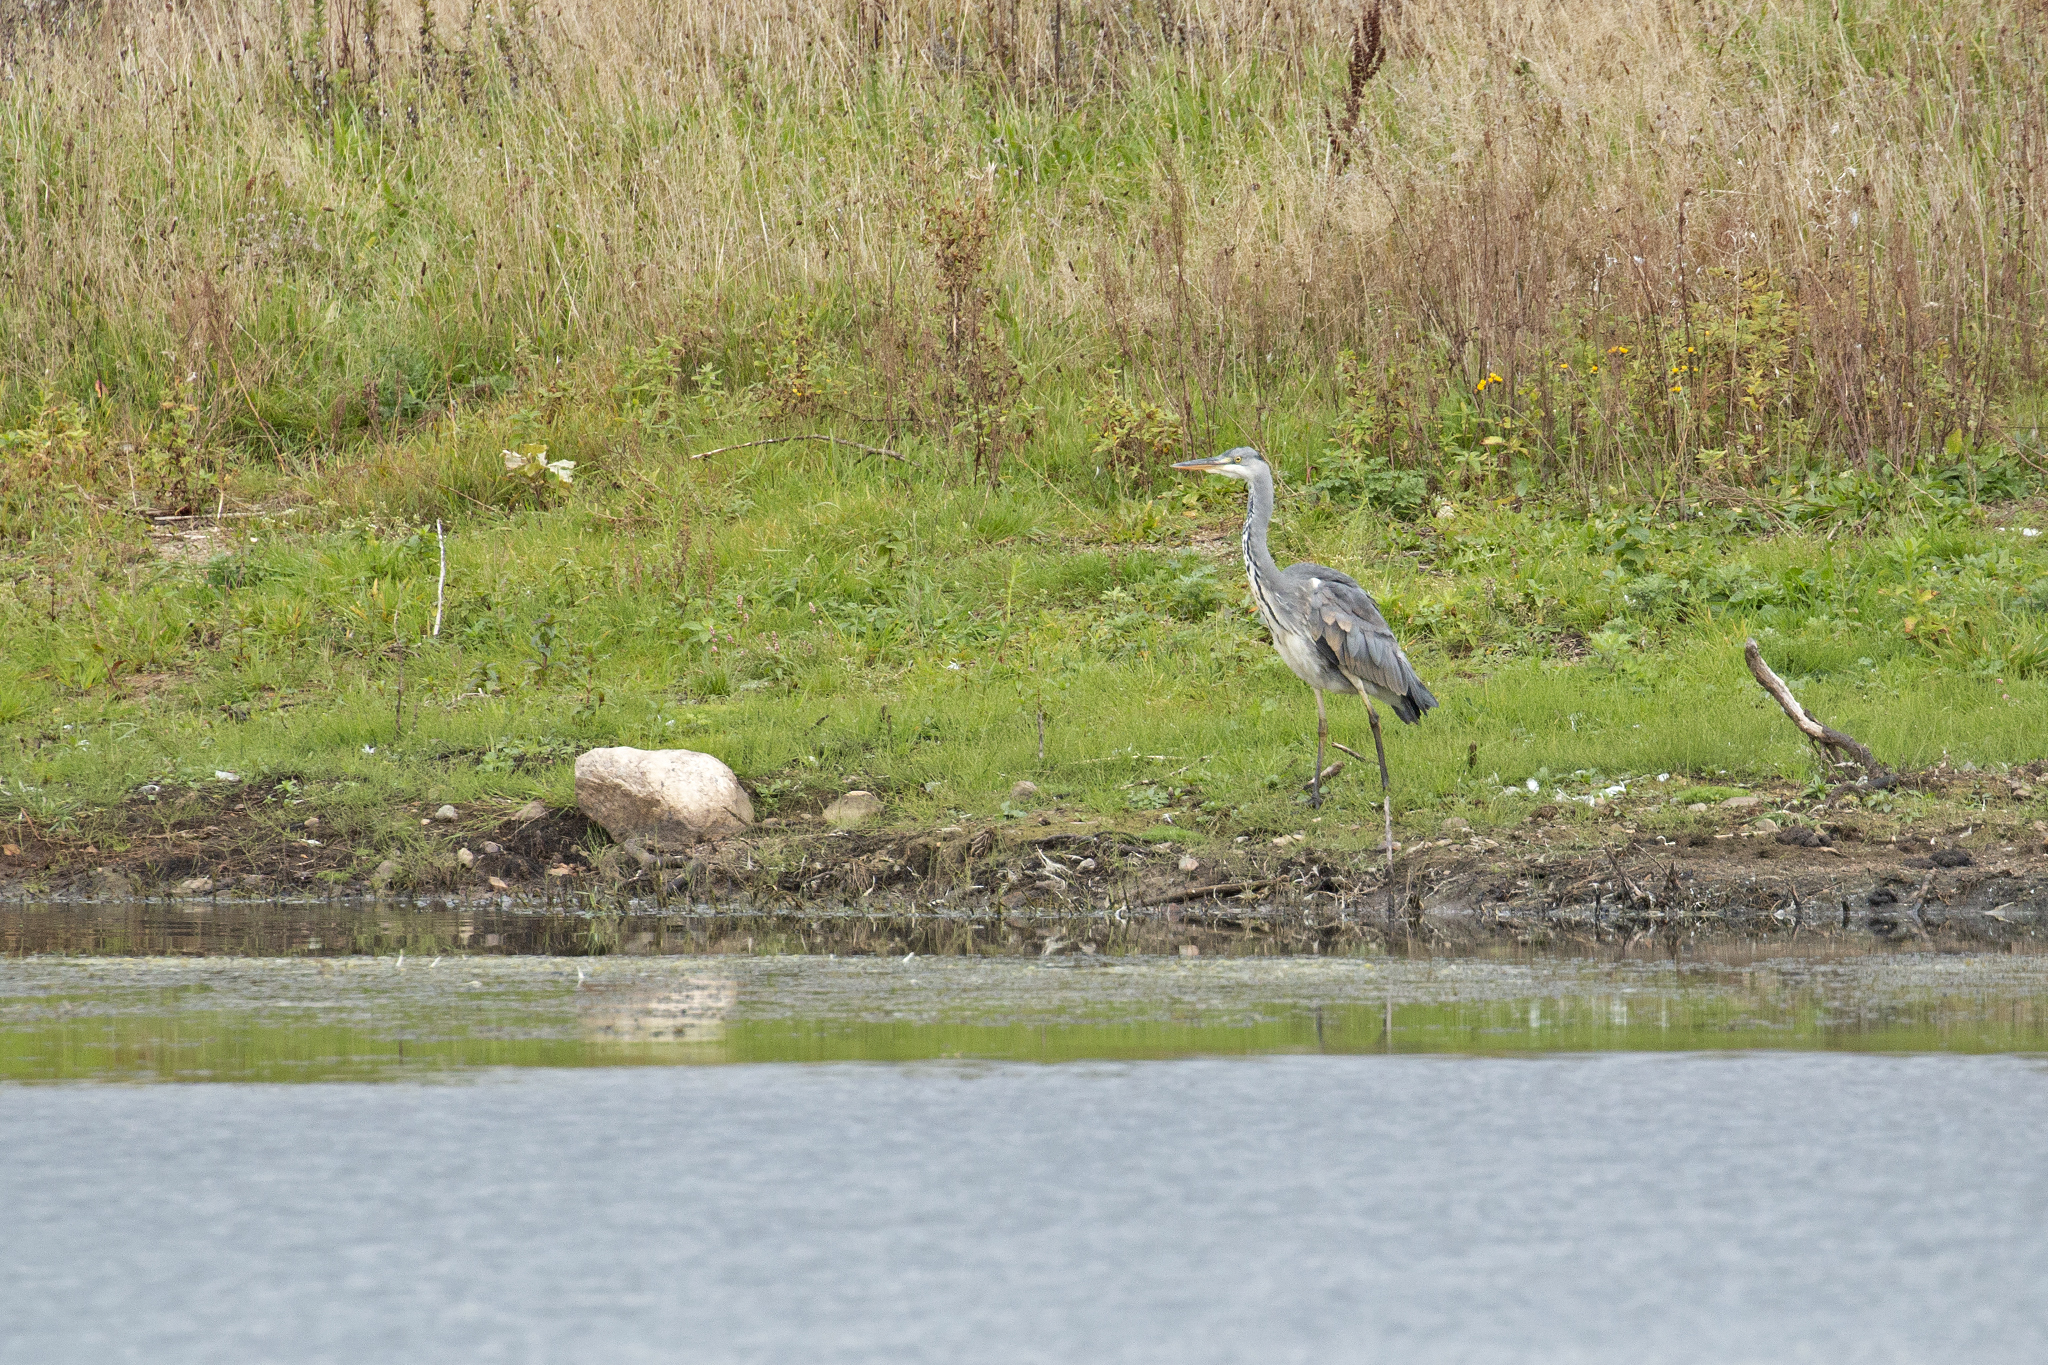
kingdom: Animalia
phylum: Chordata
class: Aves
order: Pelecaniformes
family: Ardeidae
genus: Ardea
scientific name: Ardea cinerea
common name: Grey heron
